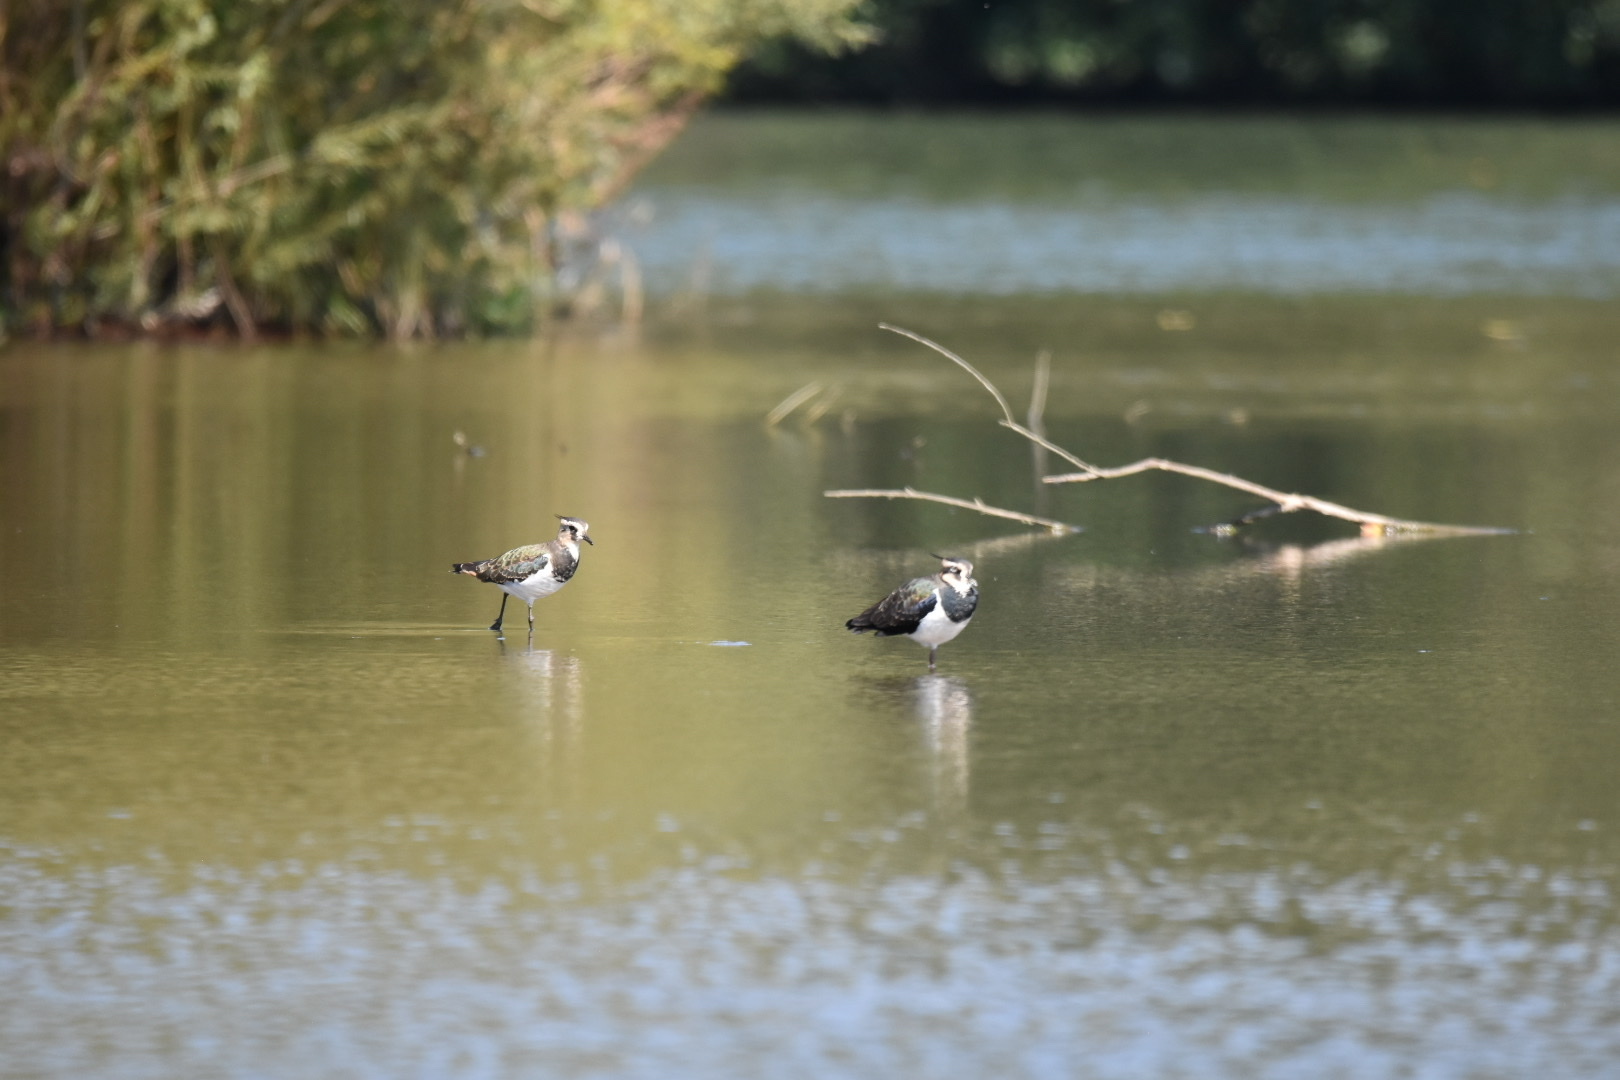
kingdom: Animalia
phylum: Chordata
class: Aves
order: Charadriiformes
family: Charadriidae
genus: Vanellus
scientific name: Vanellus vanellus
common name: Northern lapwing
